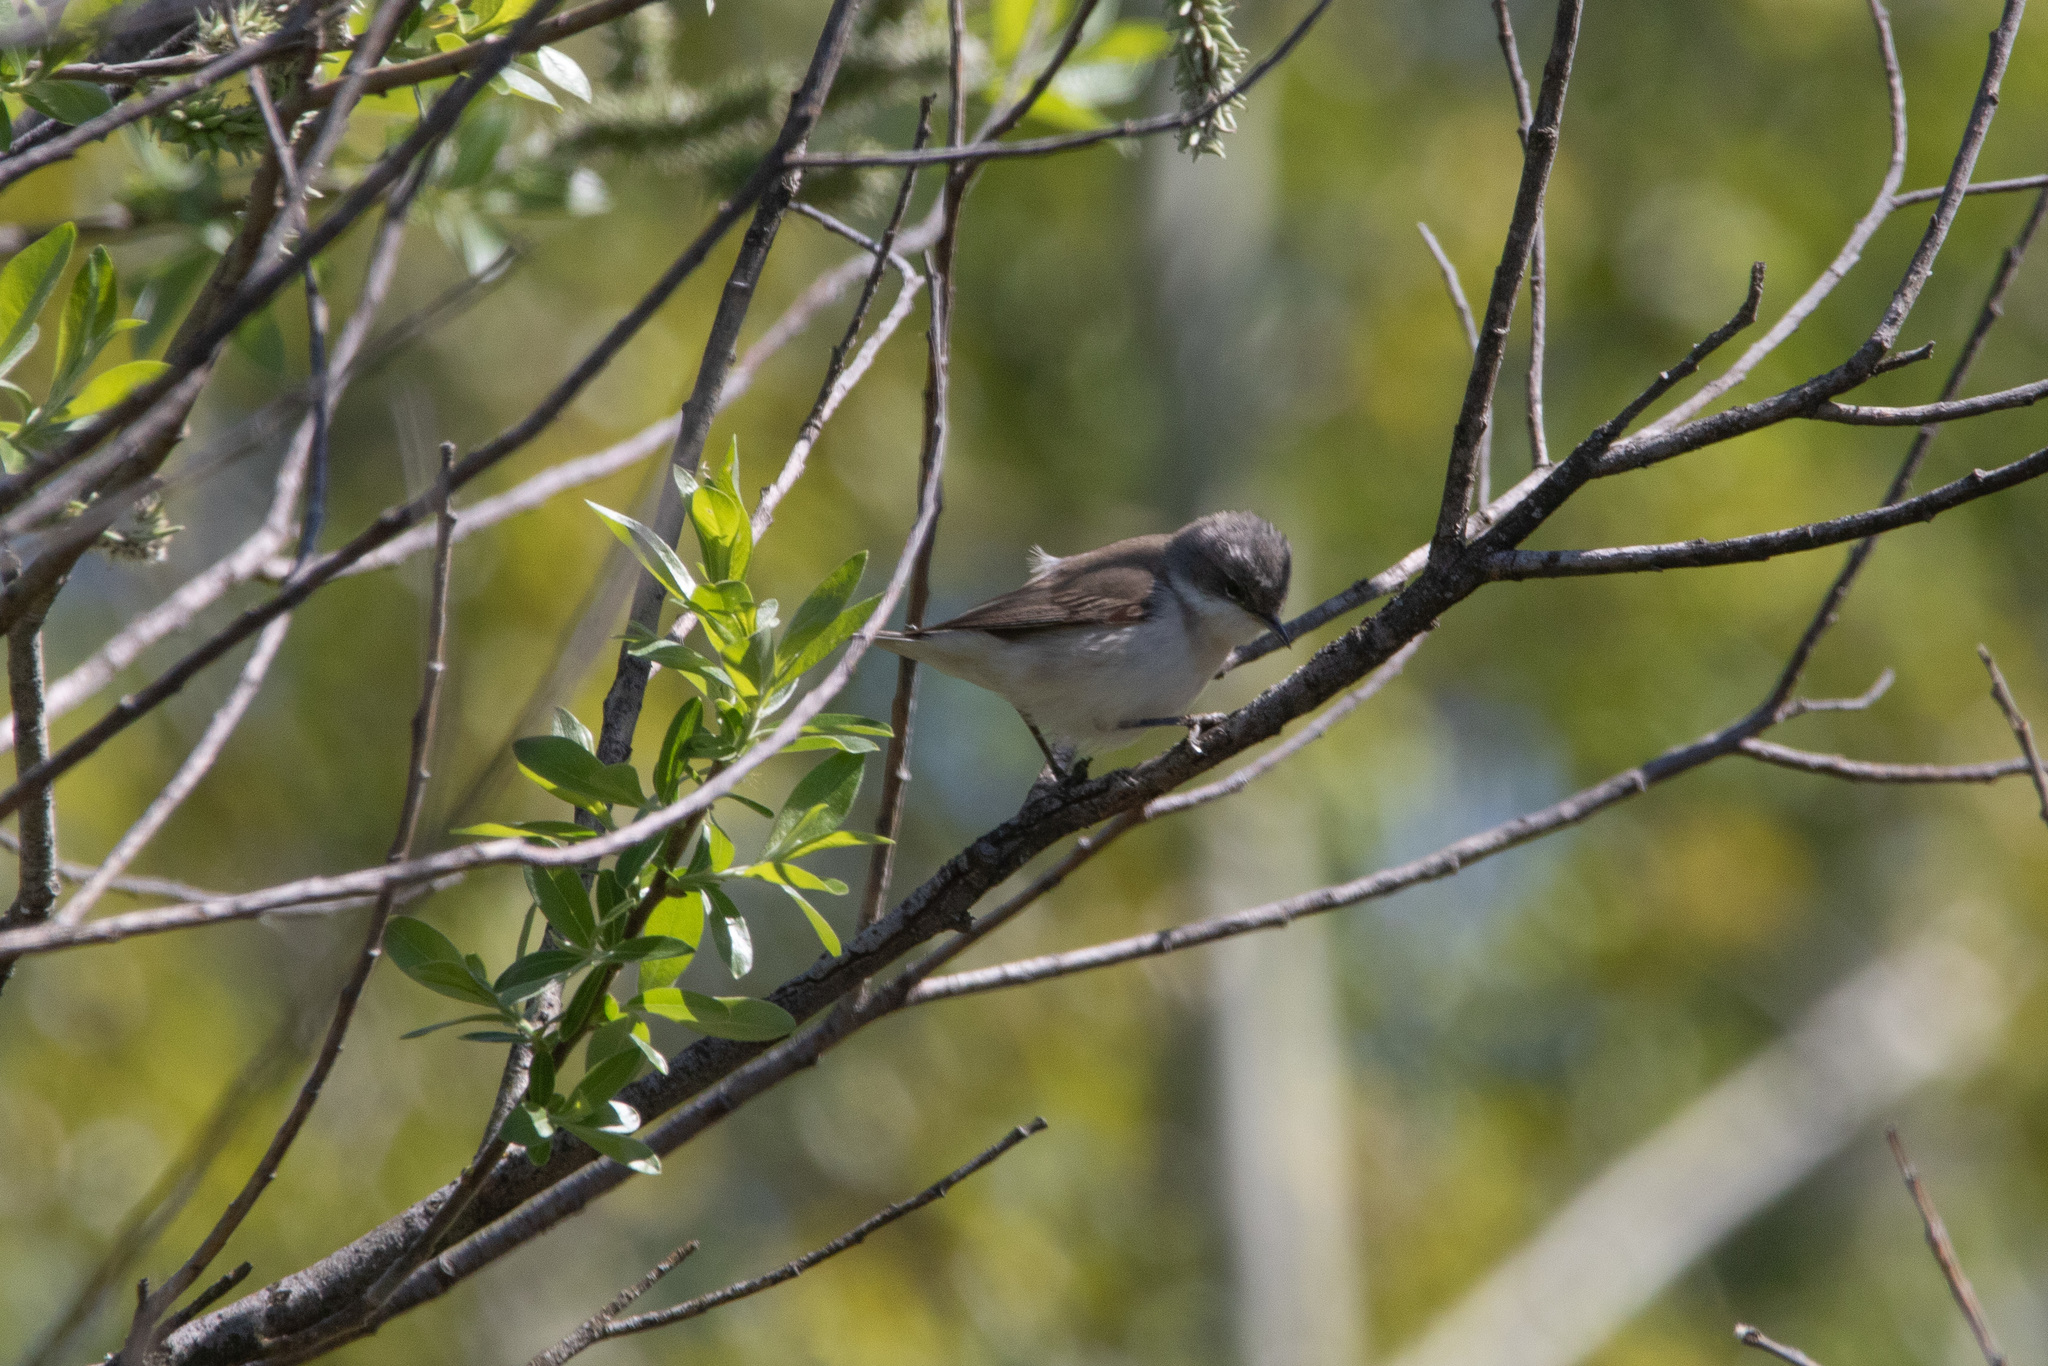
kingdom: Animalia
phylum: Chordata
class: Aves
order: Passeriformes
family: Sylviidae
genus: Sylvia
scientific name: Sylvia curruca
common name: Lesser whitethroat
